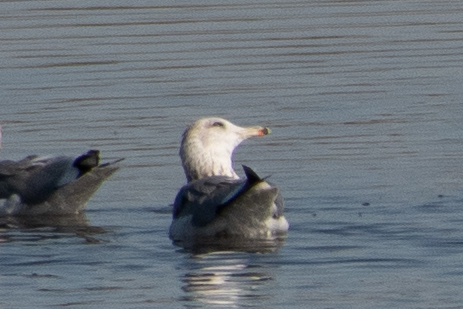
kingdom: Animalia
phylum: Chordata
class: Aves
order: Charadriiformes
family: Laridae
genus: Larus
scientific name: Larus delawarensis
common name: Ring-billed gull
